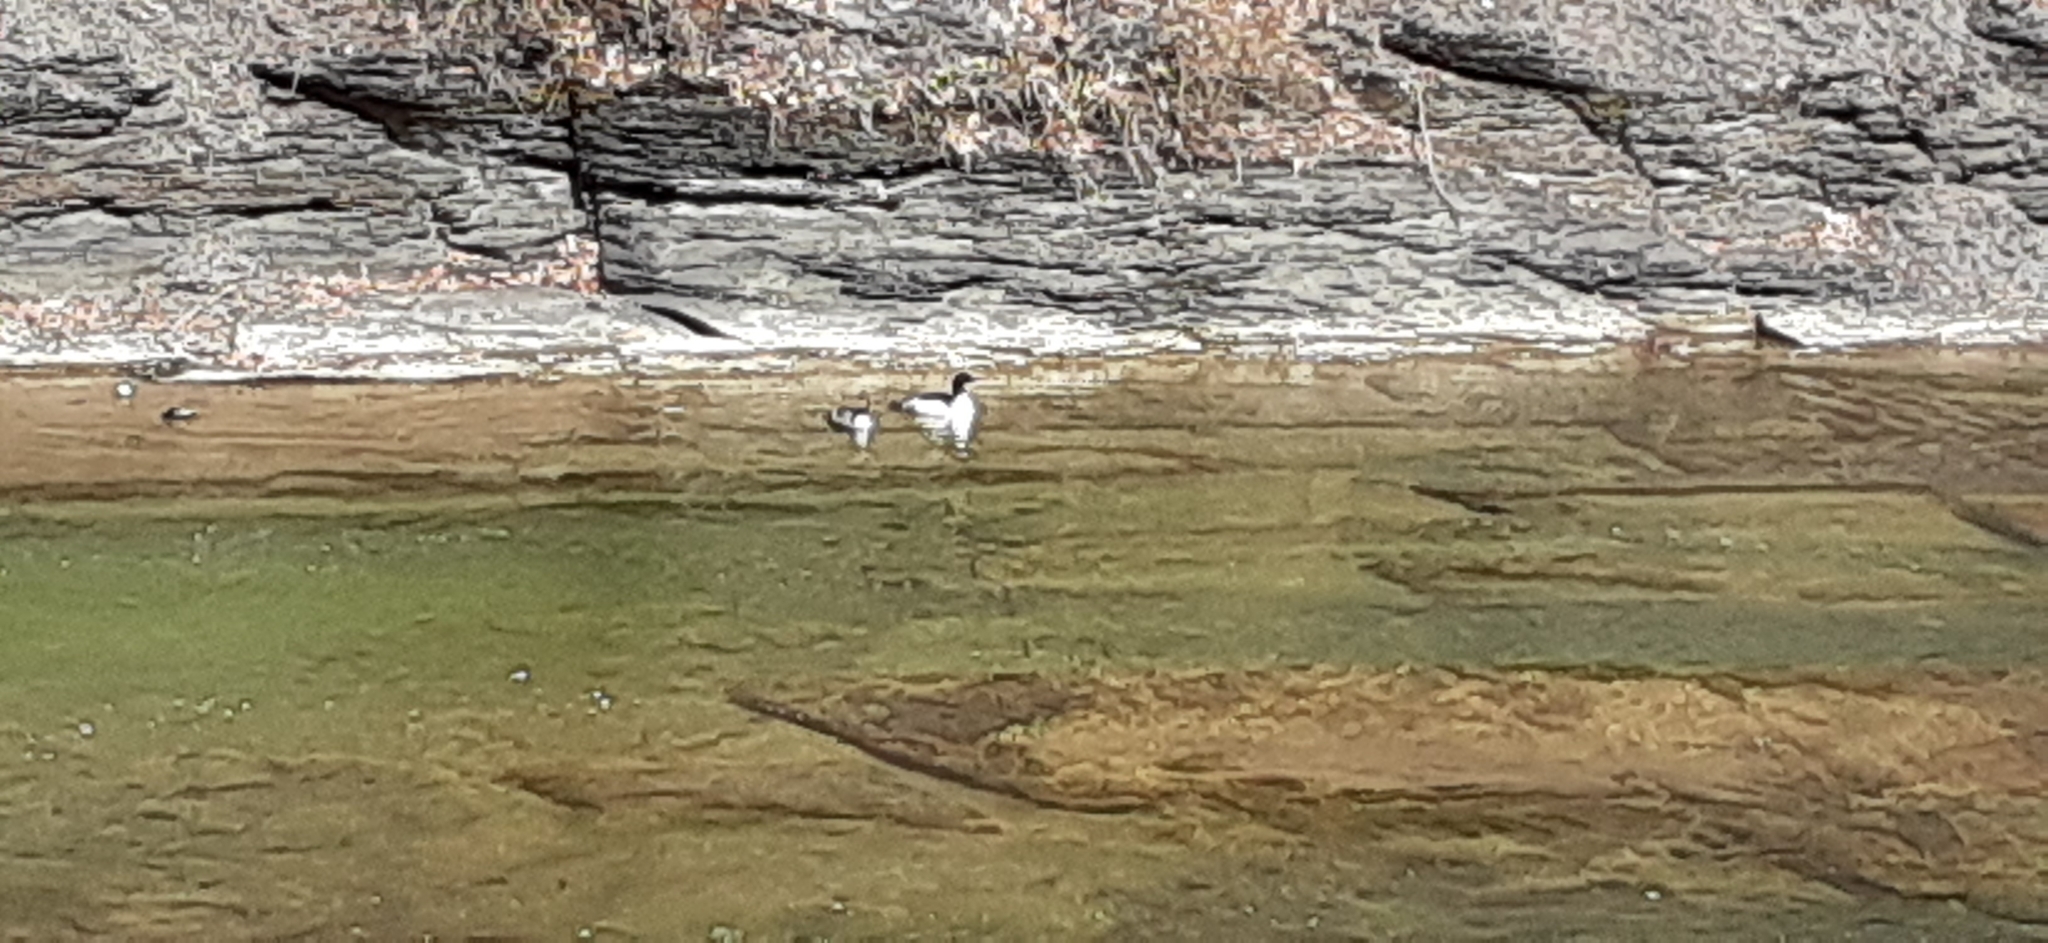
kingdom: Animalia
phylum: Chordata
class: Aves
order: Anseriformes
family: Anatidae
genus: Mergus
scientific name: Mergus merganser
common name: Common merganser
